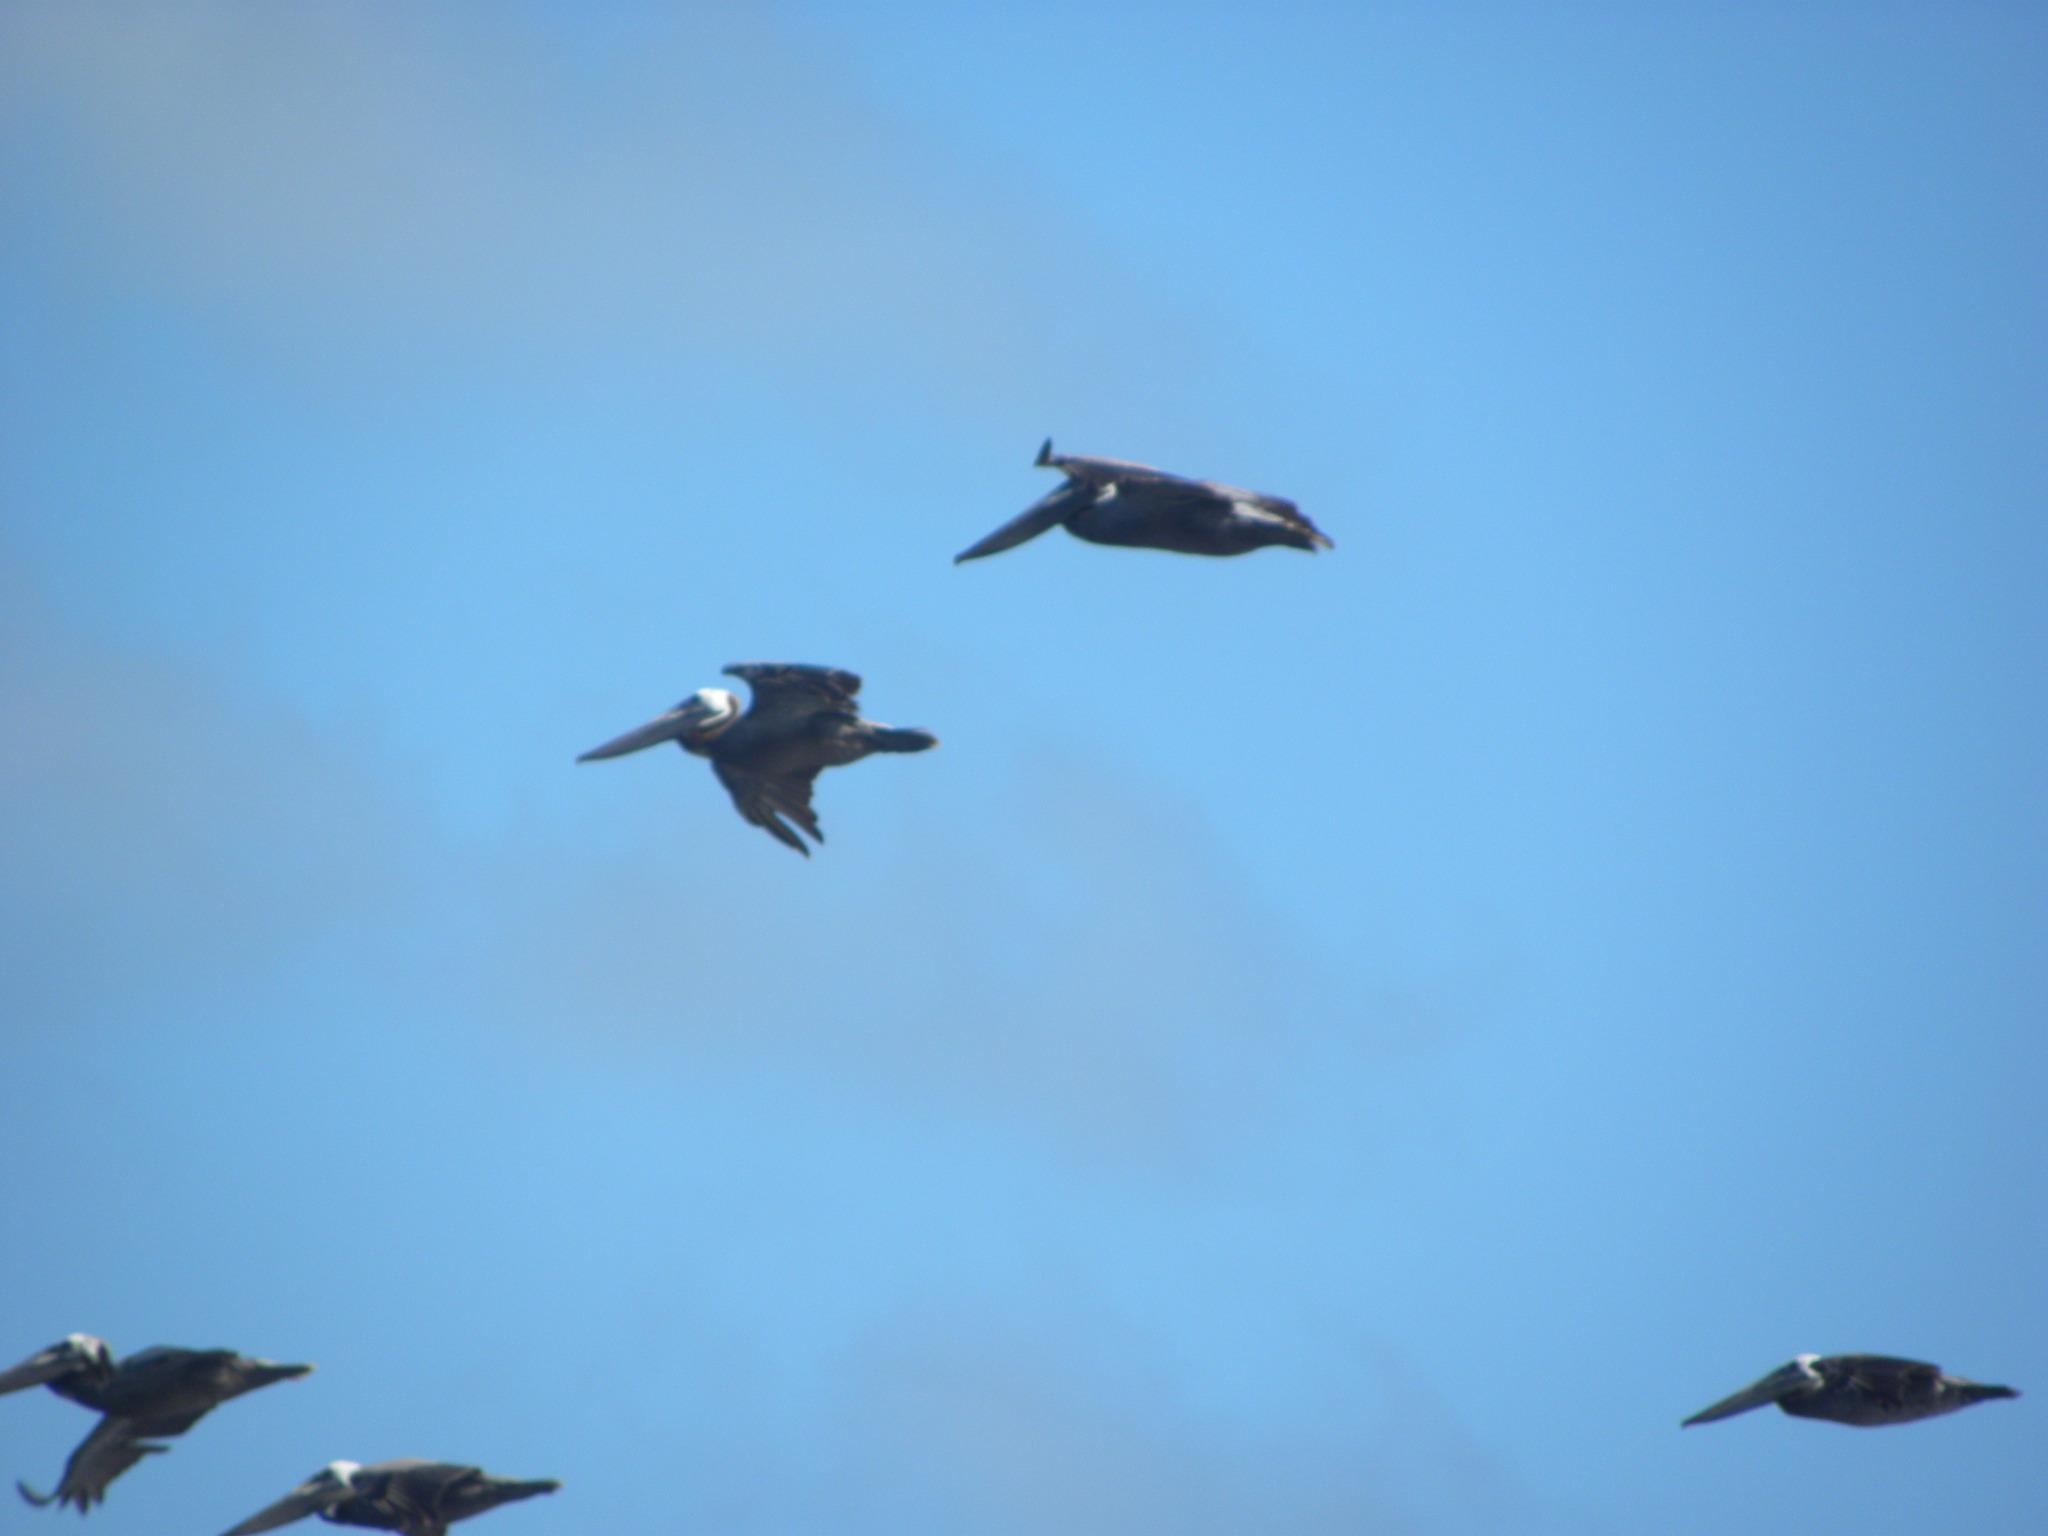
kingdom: Animalia
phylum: Chordata
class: Aves
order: Pelecaniformes
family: Pelecanidae
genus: Pelecanus
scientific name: Pelecanus occidentalis
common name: Brown pelican
